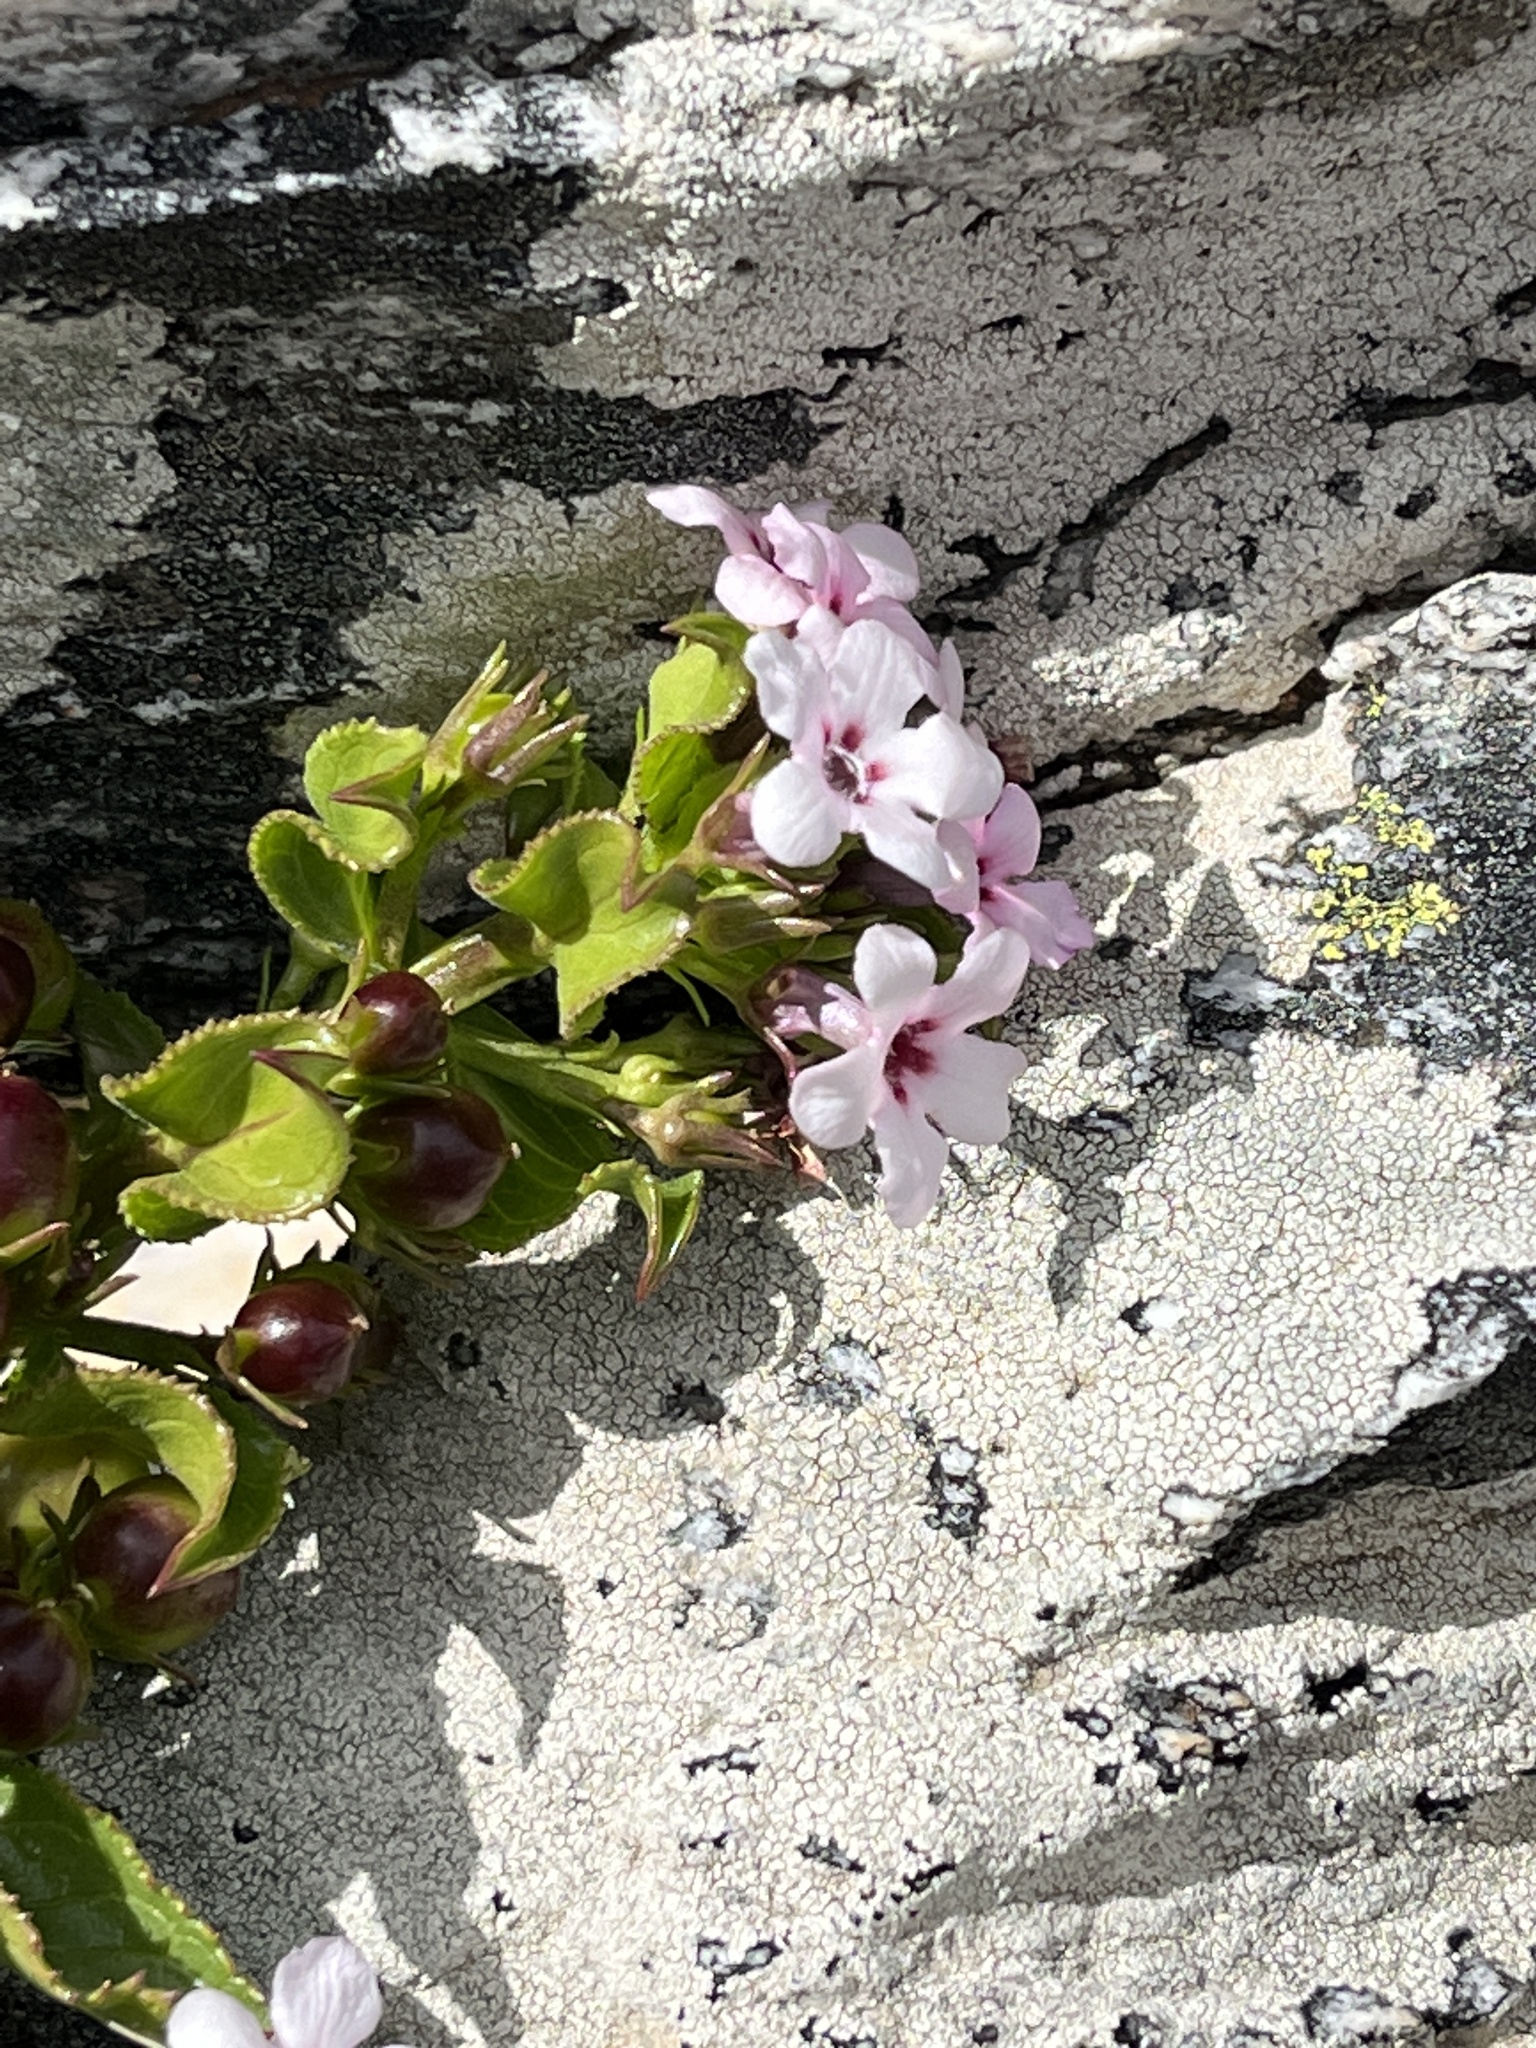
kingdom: Plantae
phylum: Tracheophyta
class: Magnoliopsida
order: Lamiales
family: Scrophulariaceae
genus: Teedia
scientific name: Teedia lucida
